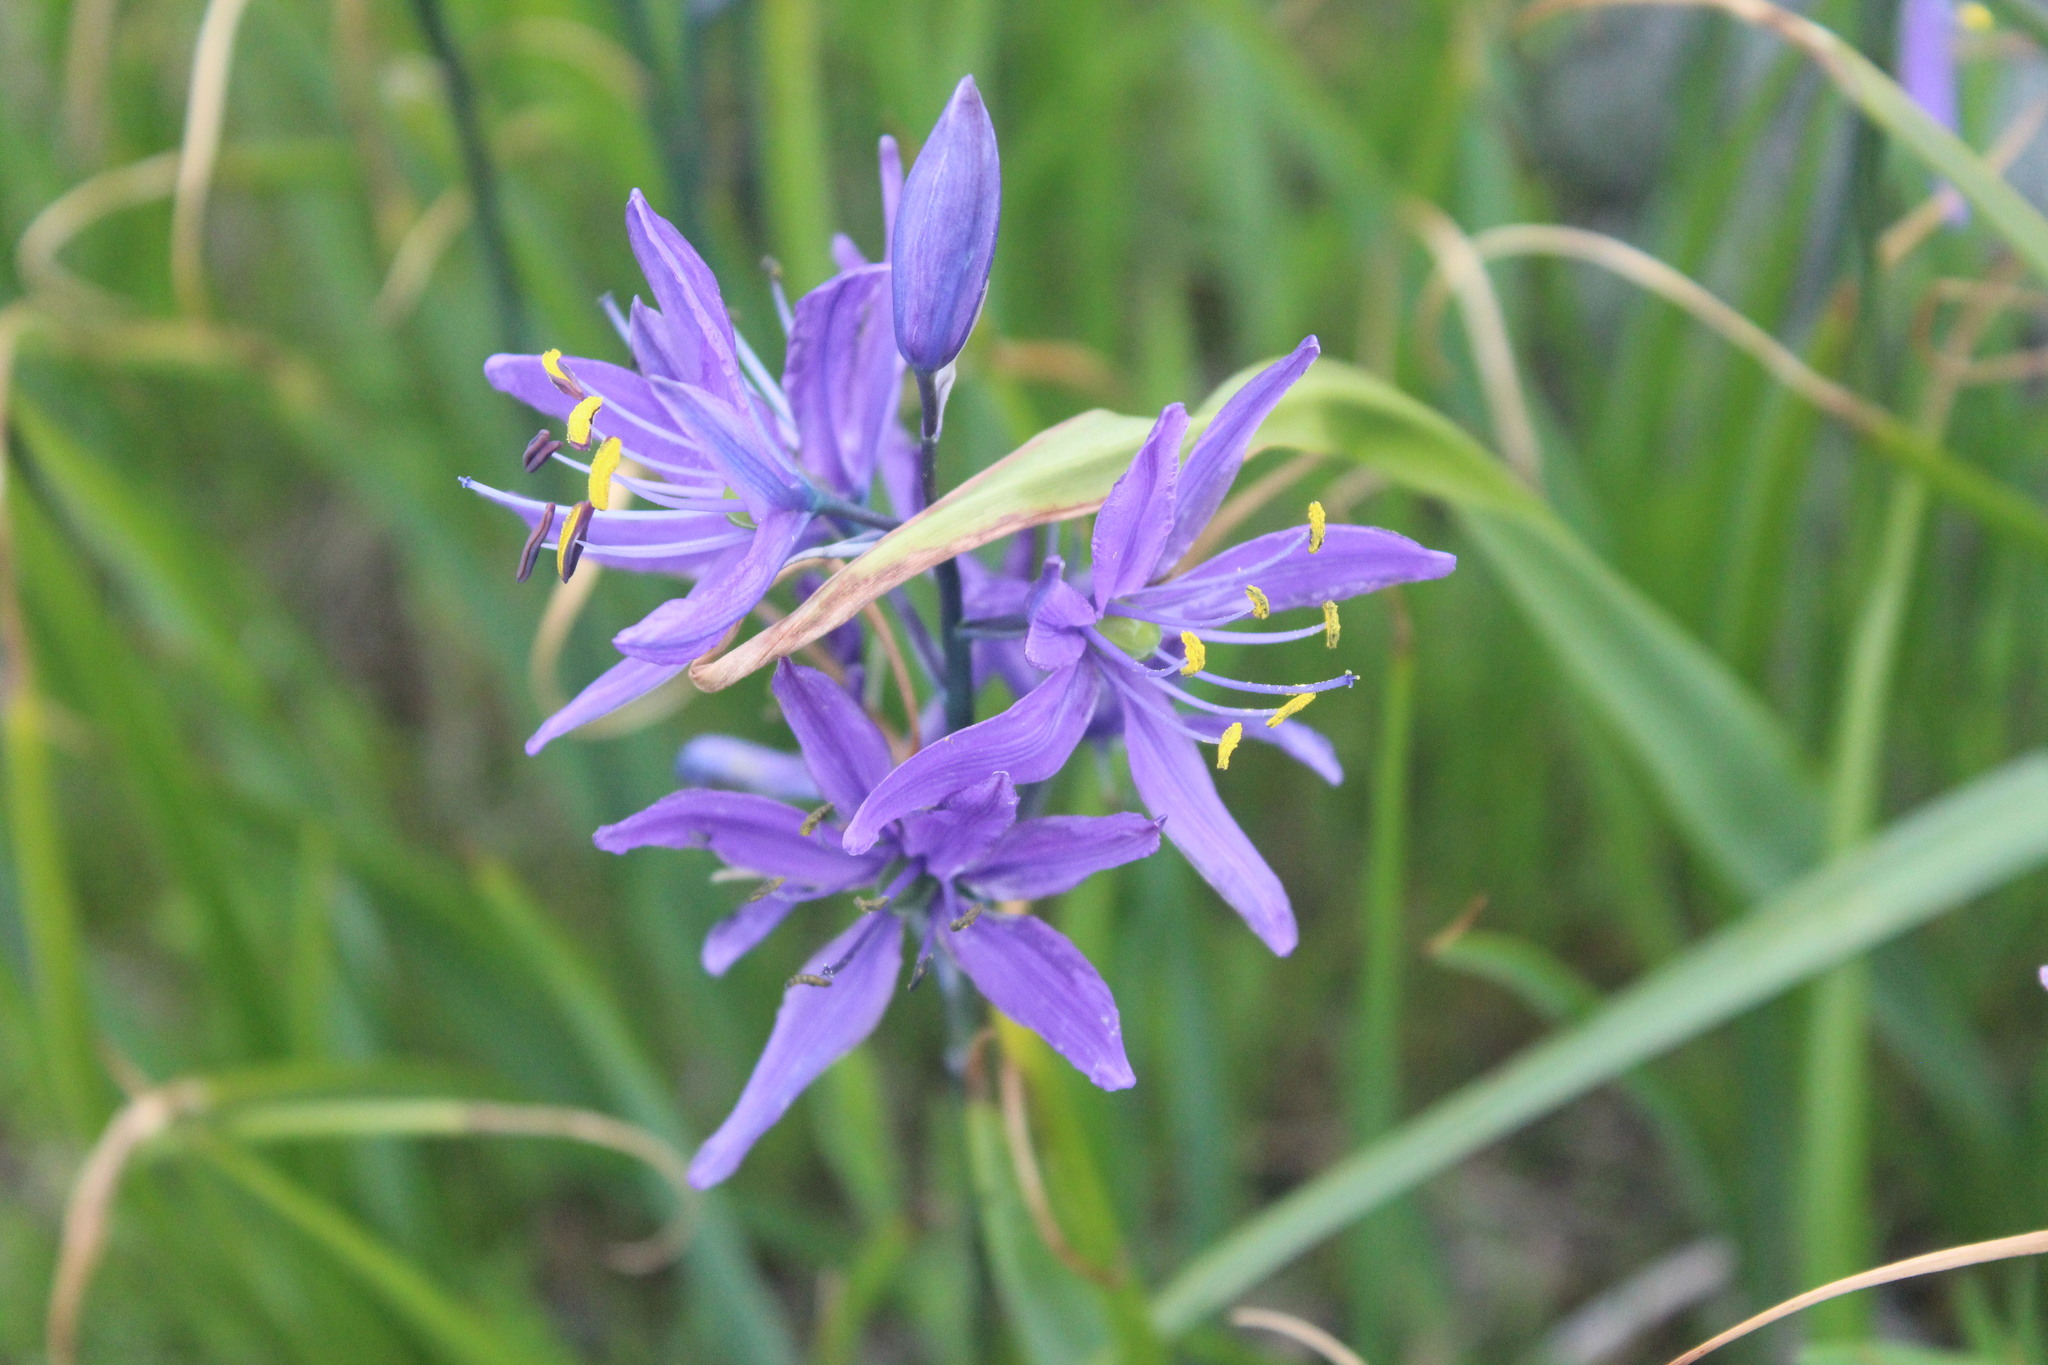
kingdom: Plantae
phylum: Tracheophyta
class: Liliopsida
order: Asparagales
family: Asparagaceae
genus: Camassia
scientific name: Camassia leichtlinii
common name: Leichtlin's camas
